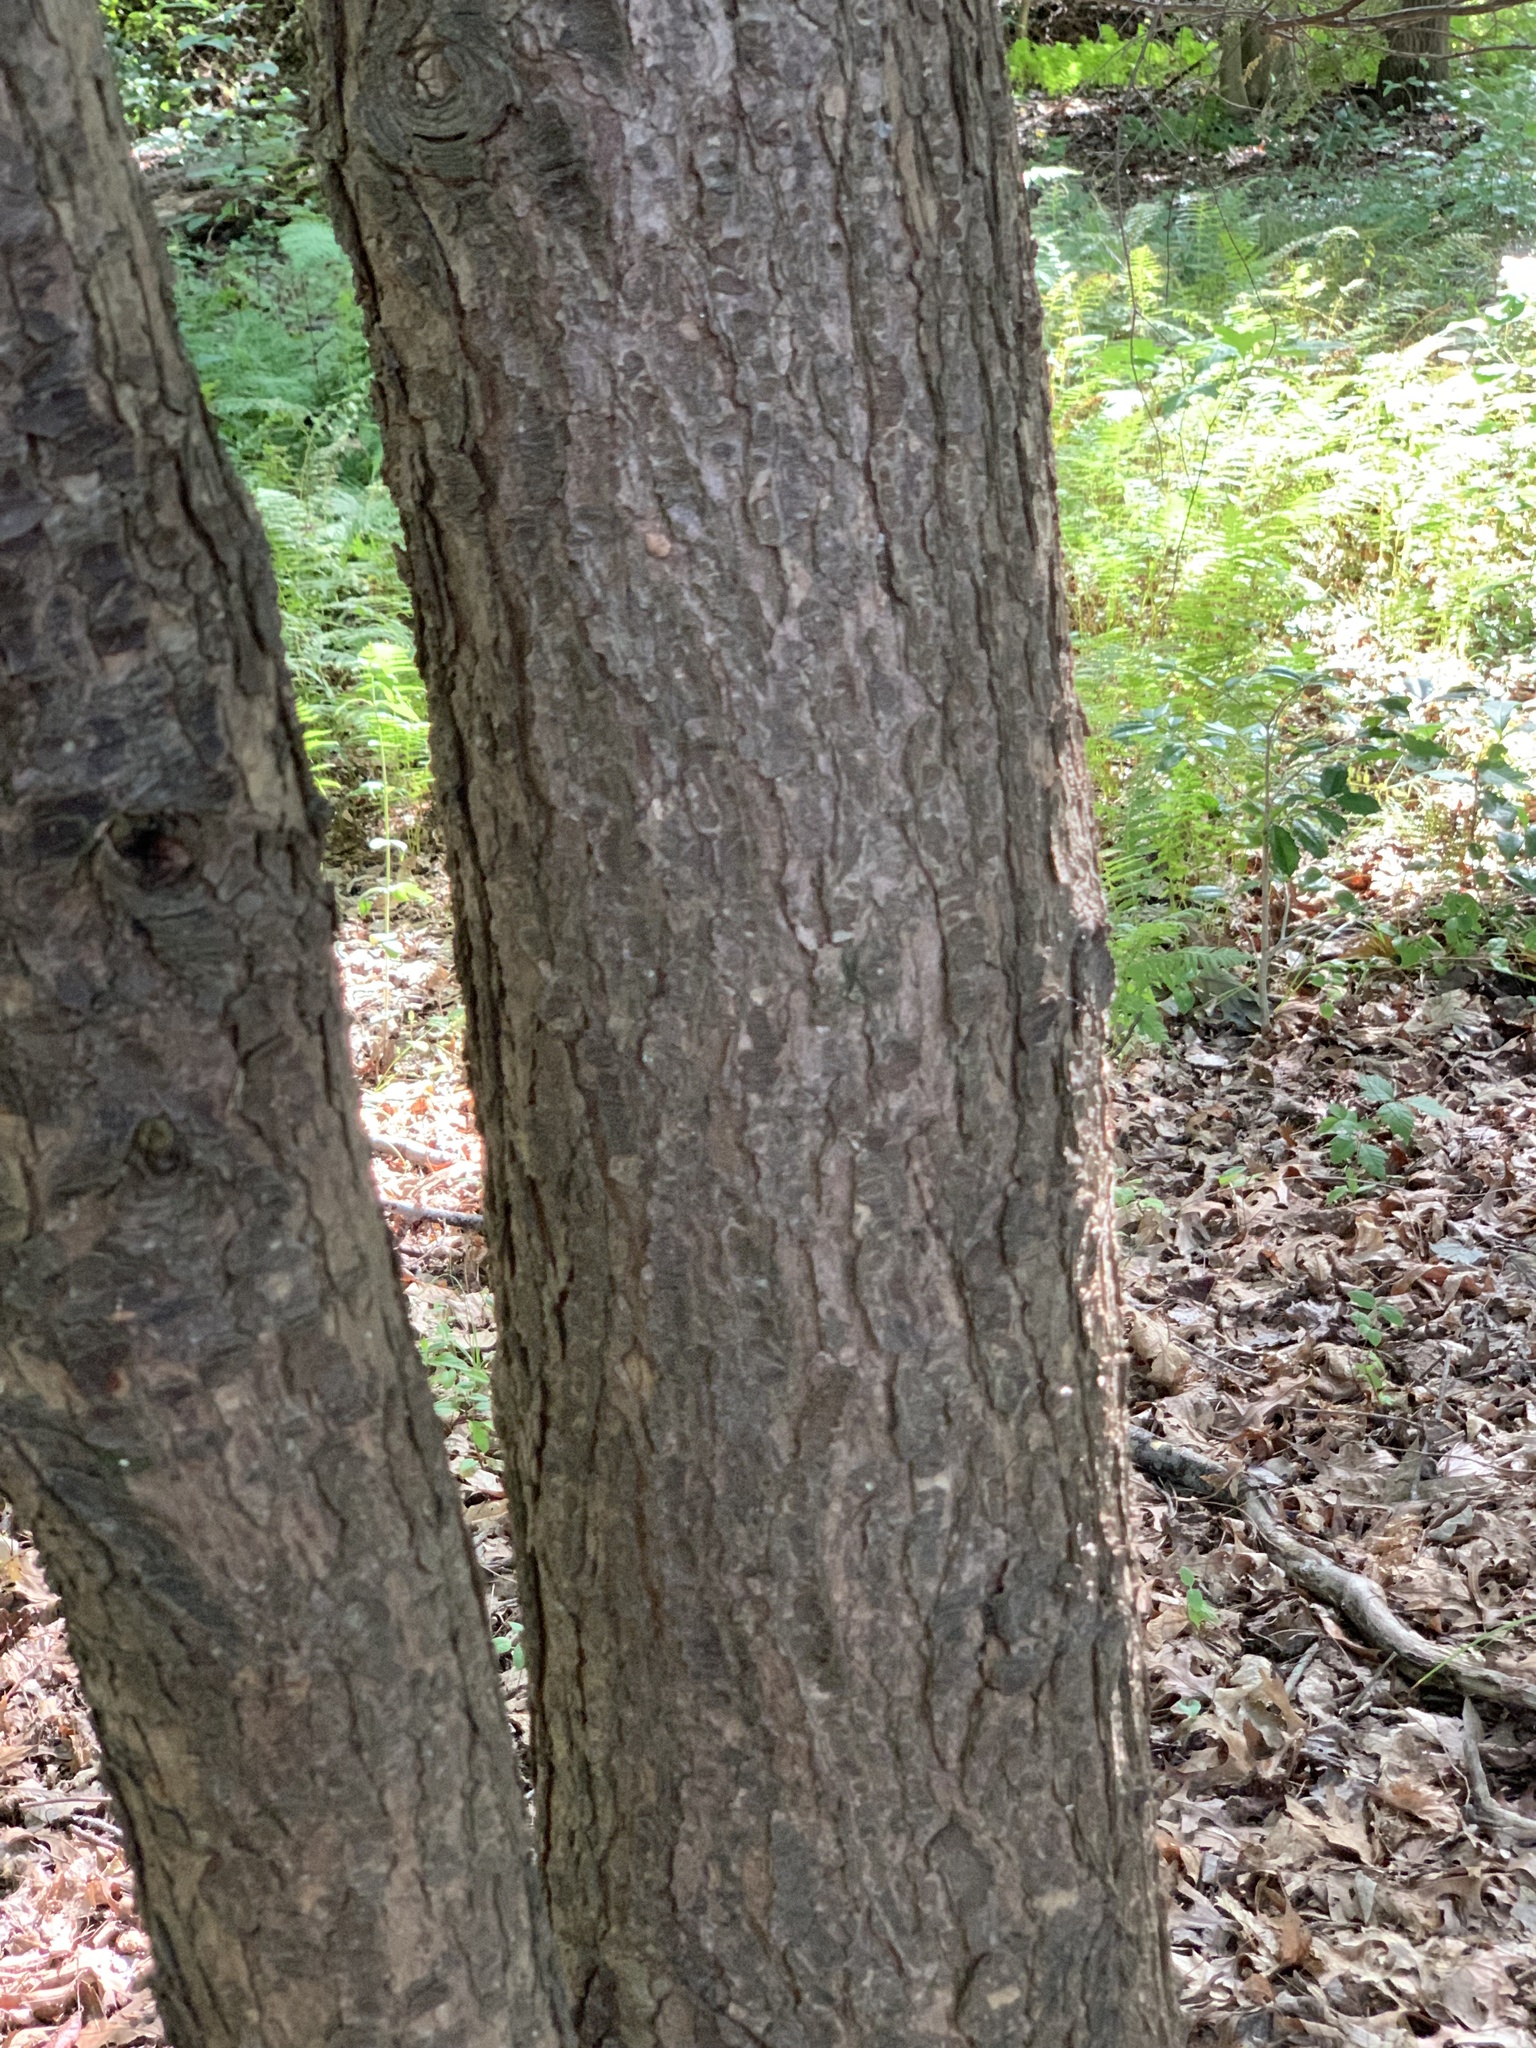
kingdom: Plantae
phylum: Tracheophyta
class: Pinopsida
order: Pinales
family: Pinaceae
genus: Tsuga
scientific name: Tsuga canadensis
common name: Eastern hemlock
